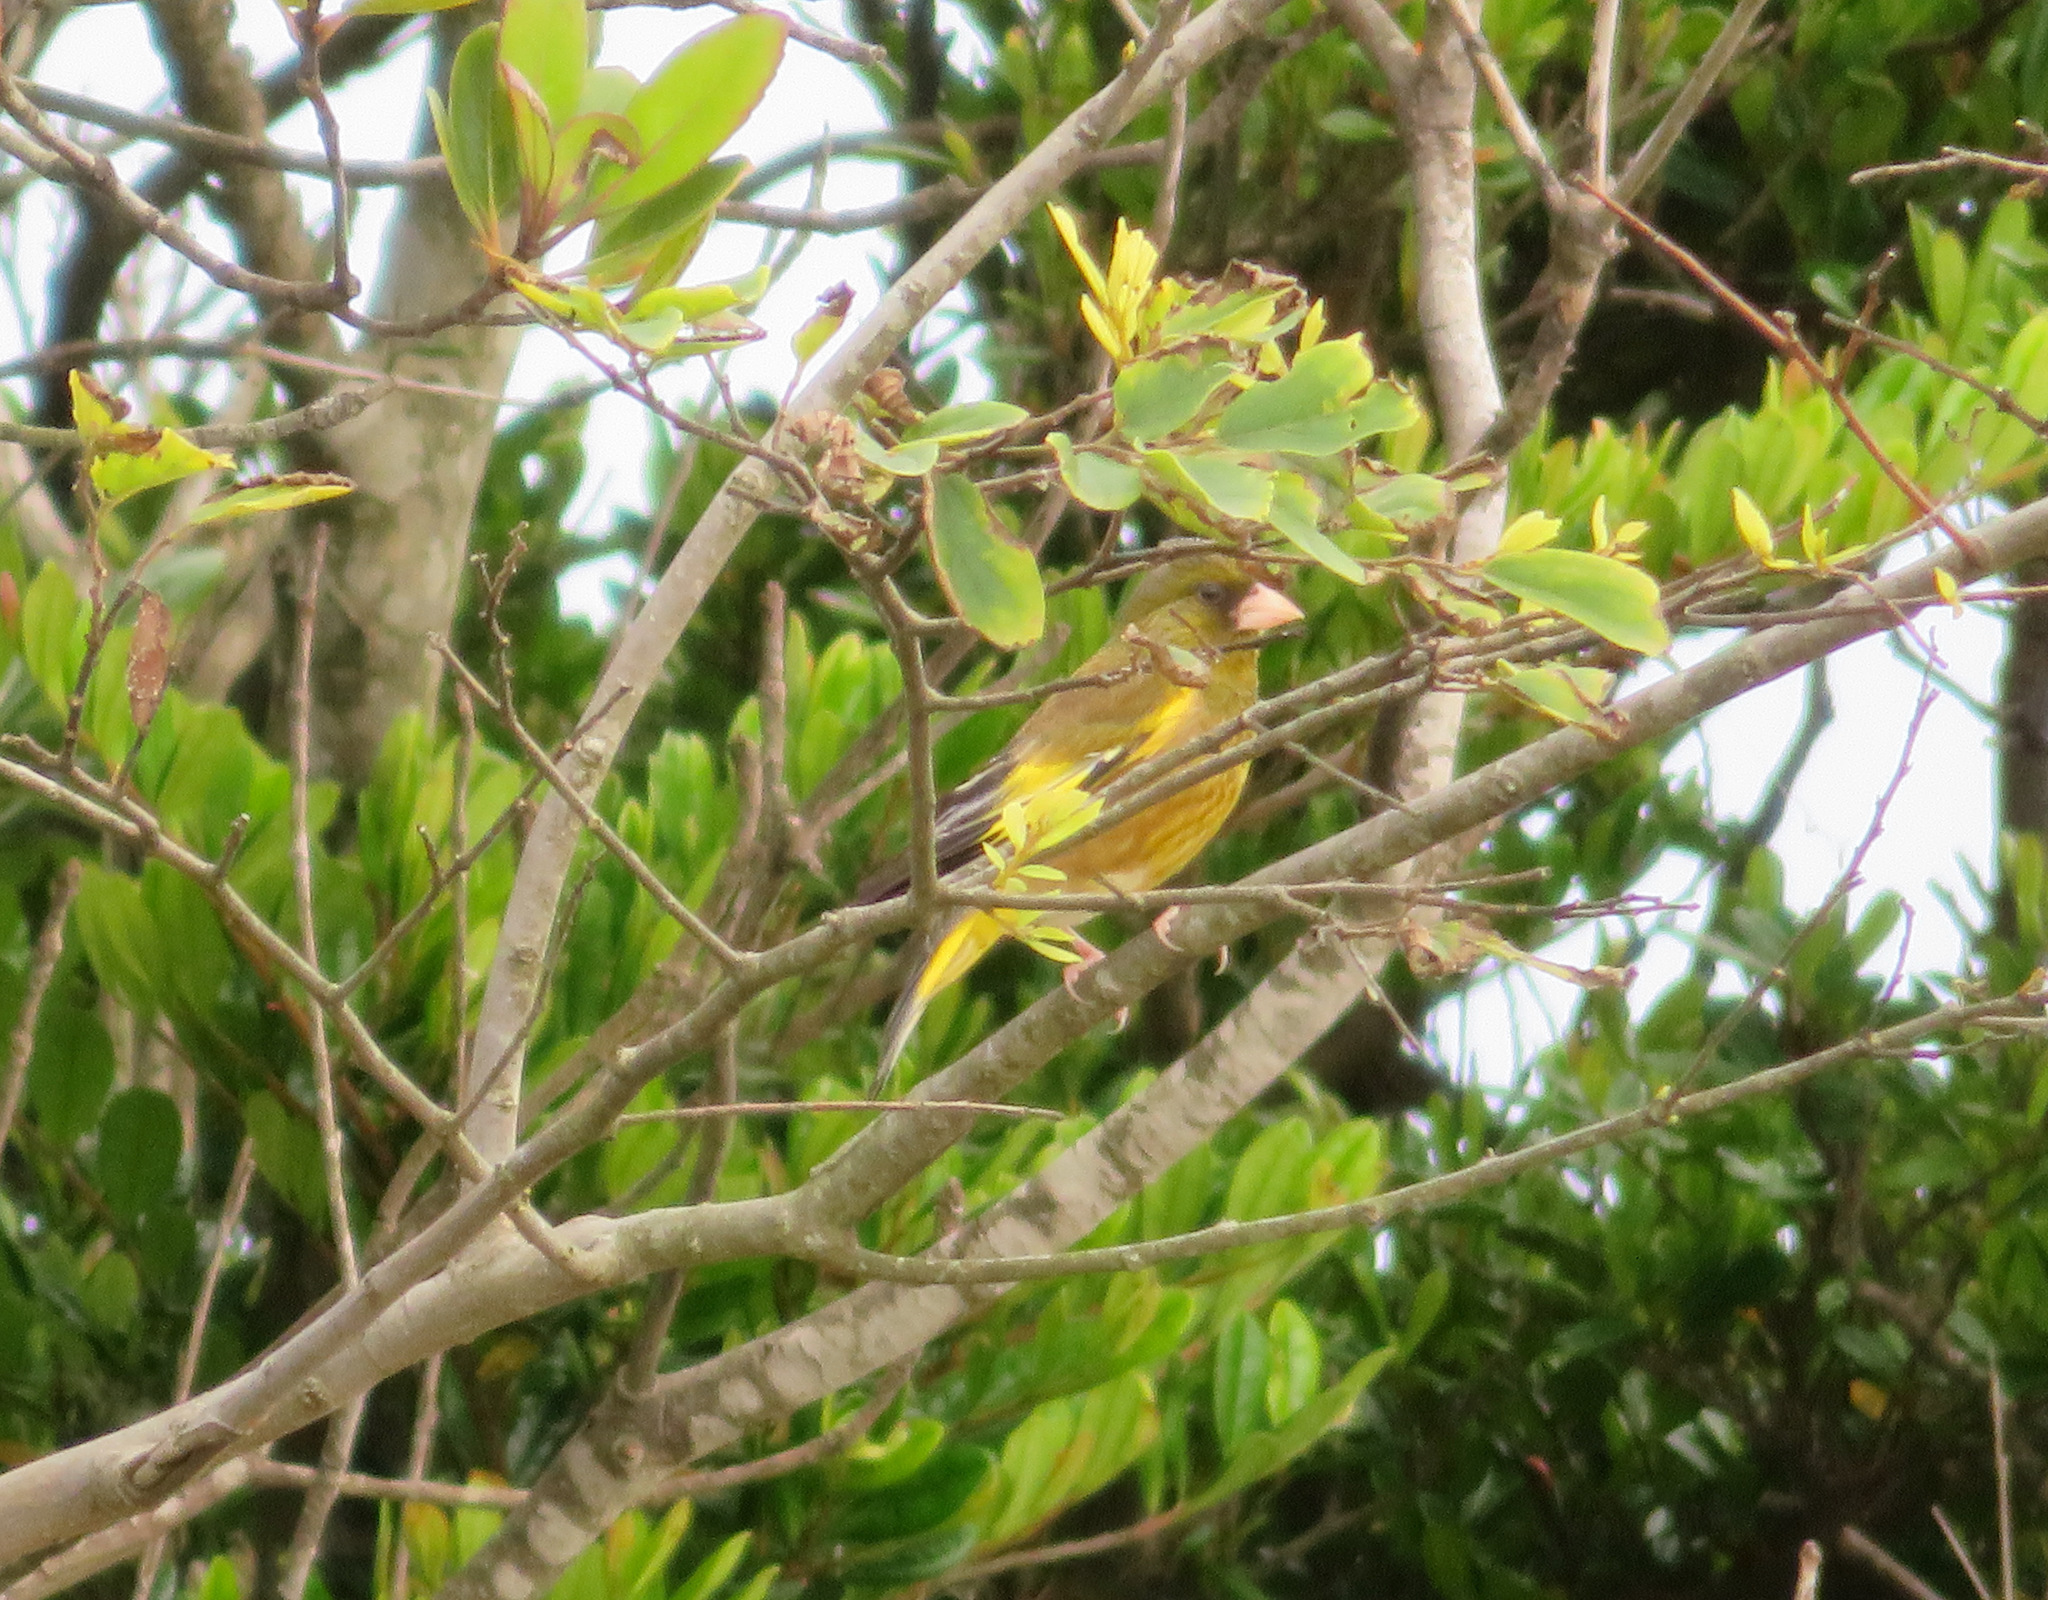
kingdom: Plantae
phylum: Tracheophyta
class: Liliopsida
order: Poales
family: Poaceae
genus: Chloris
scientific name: Chloris sinica
